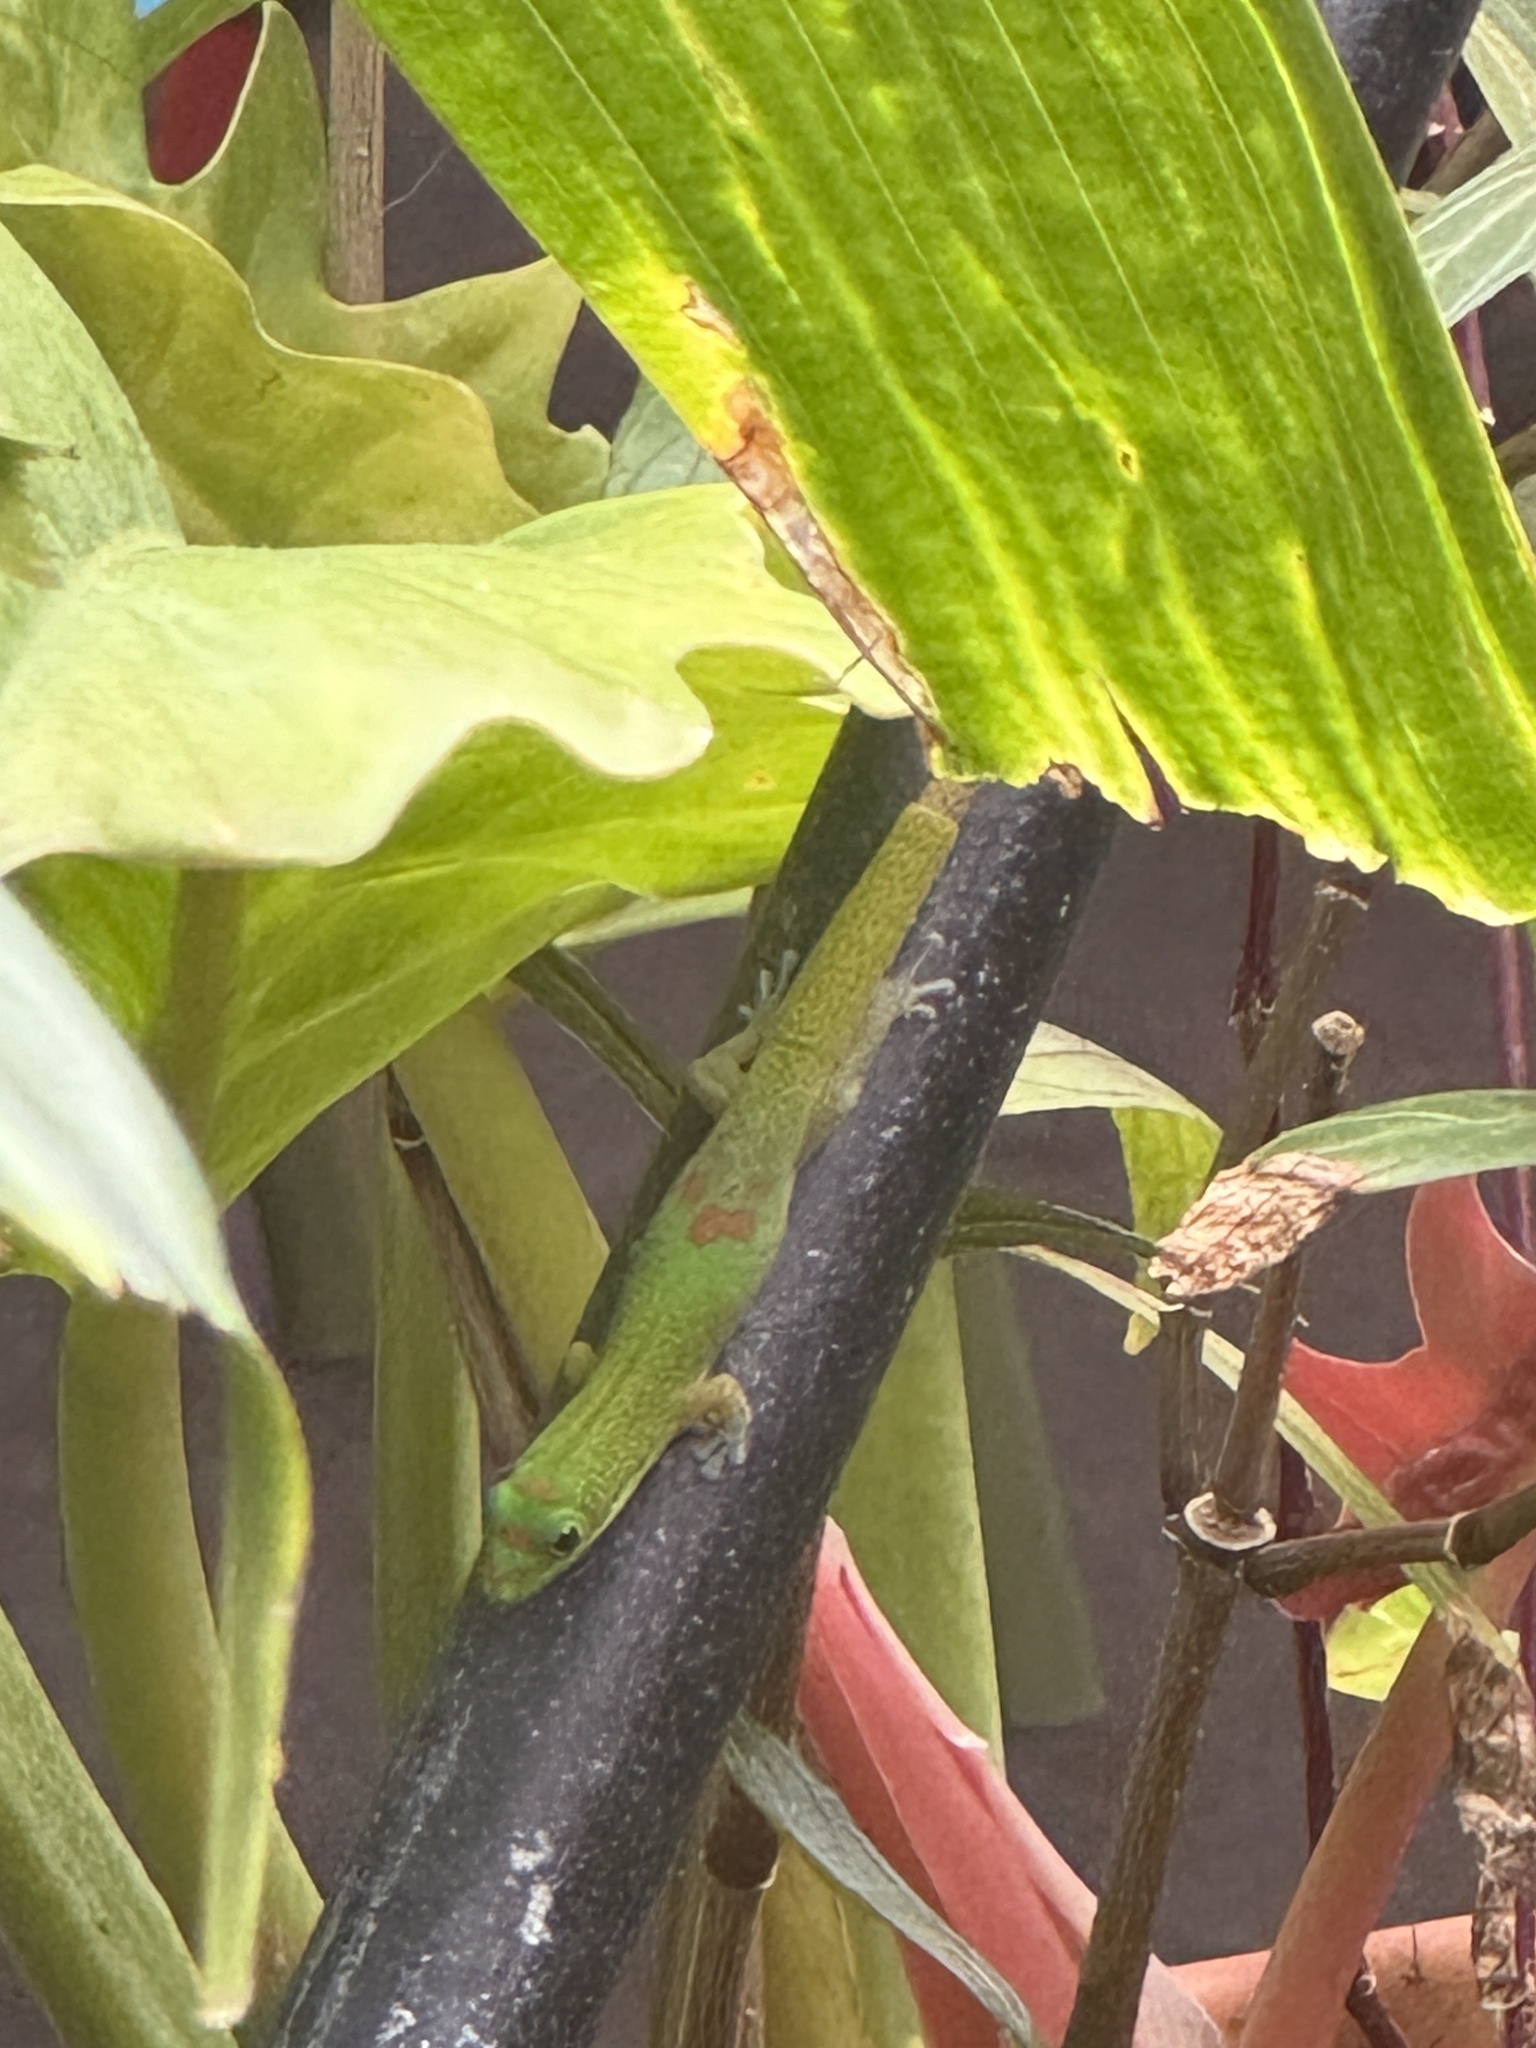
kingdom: Animalia
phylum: Chordata
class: Squamata
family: Gekkonidae
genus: Phelsuma
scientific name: Phelsuma laticauda
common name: Gold dust day gecko
